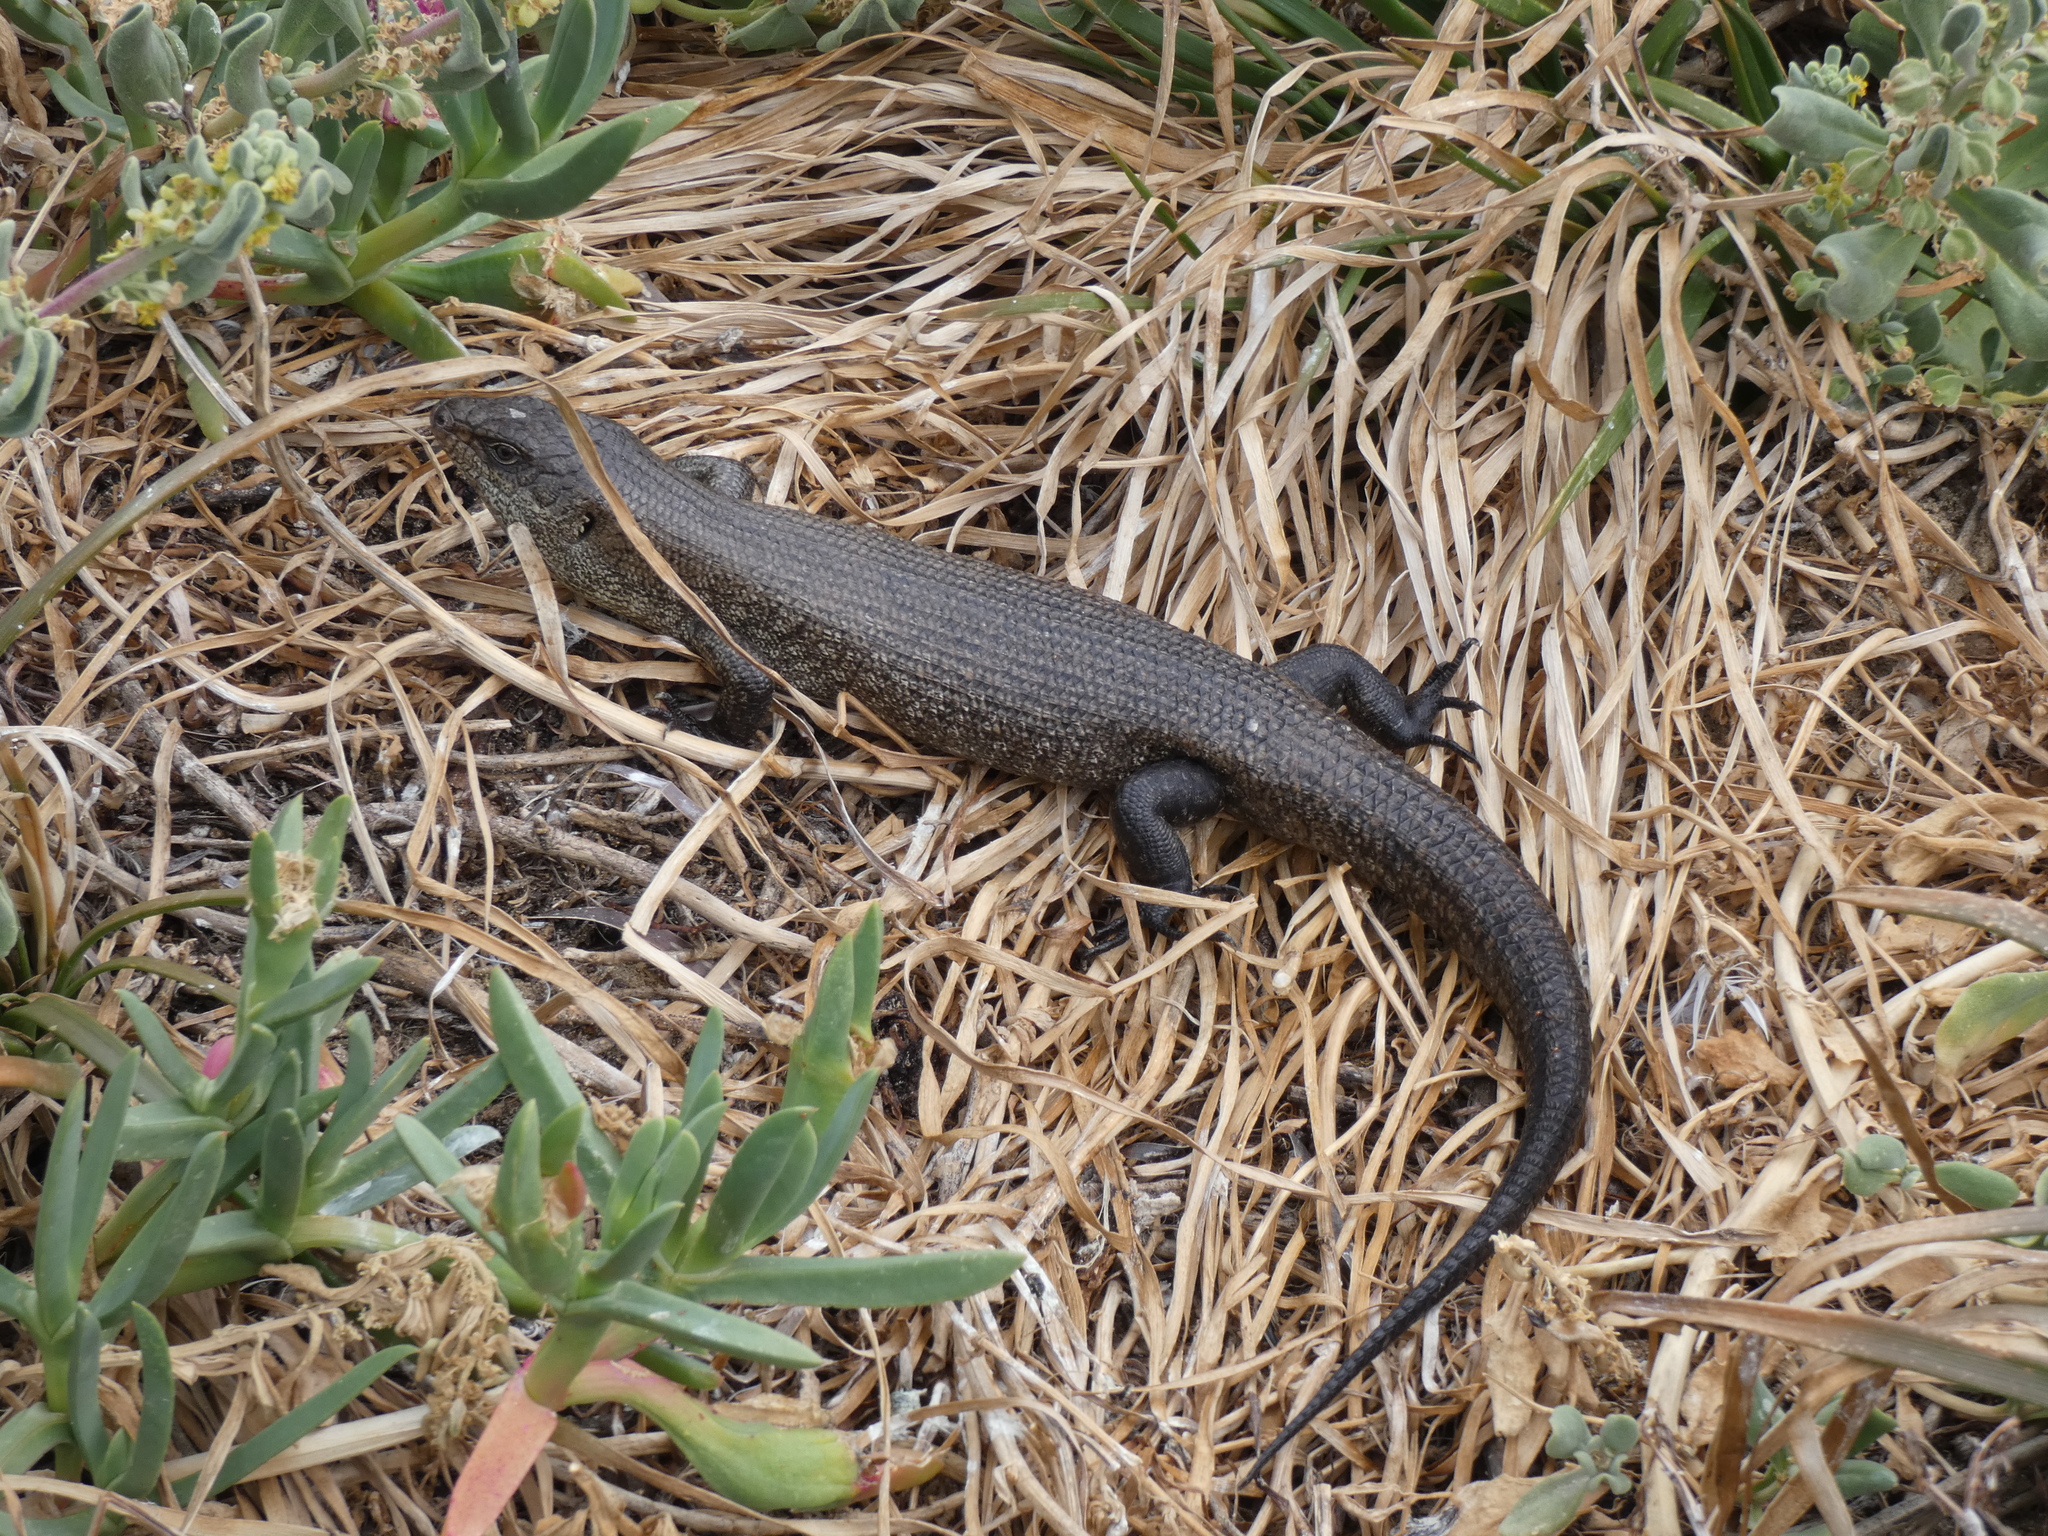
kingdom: Animalia
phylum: Chordata
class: Squamata
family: Scincidae
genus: Egernia
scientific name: Egernia kingii
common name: King's skink
